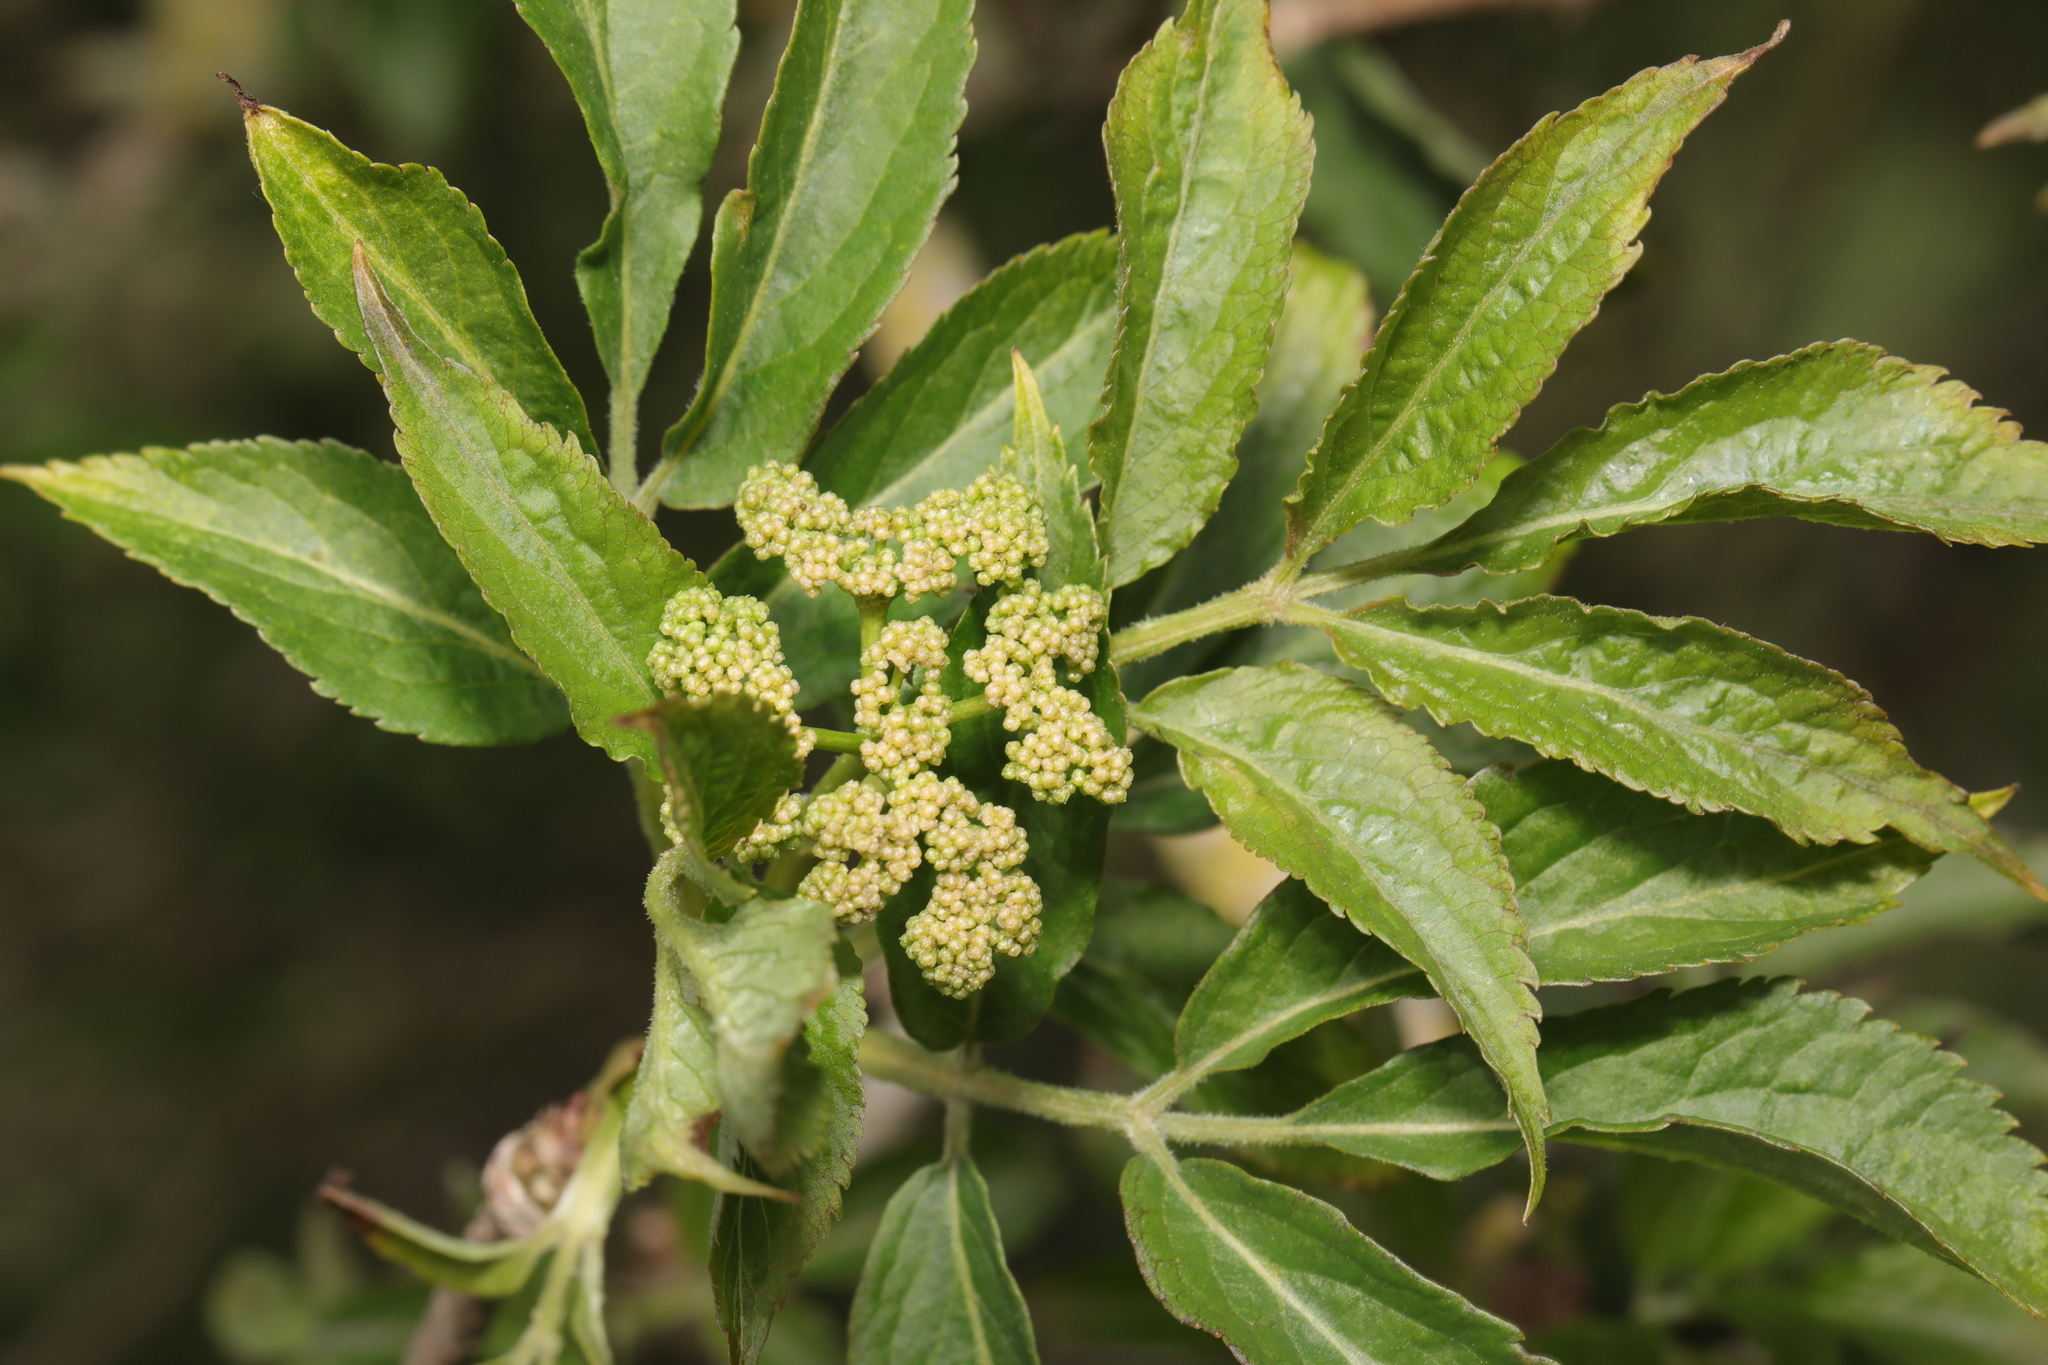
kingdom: Plantae
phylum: Tracheophyta
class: Magnoliopsida
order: Dipsacales
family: Viburnaceae
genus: Sambucus
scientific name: Sambucus nigra
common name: Elder
